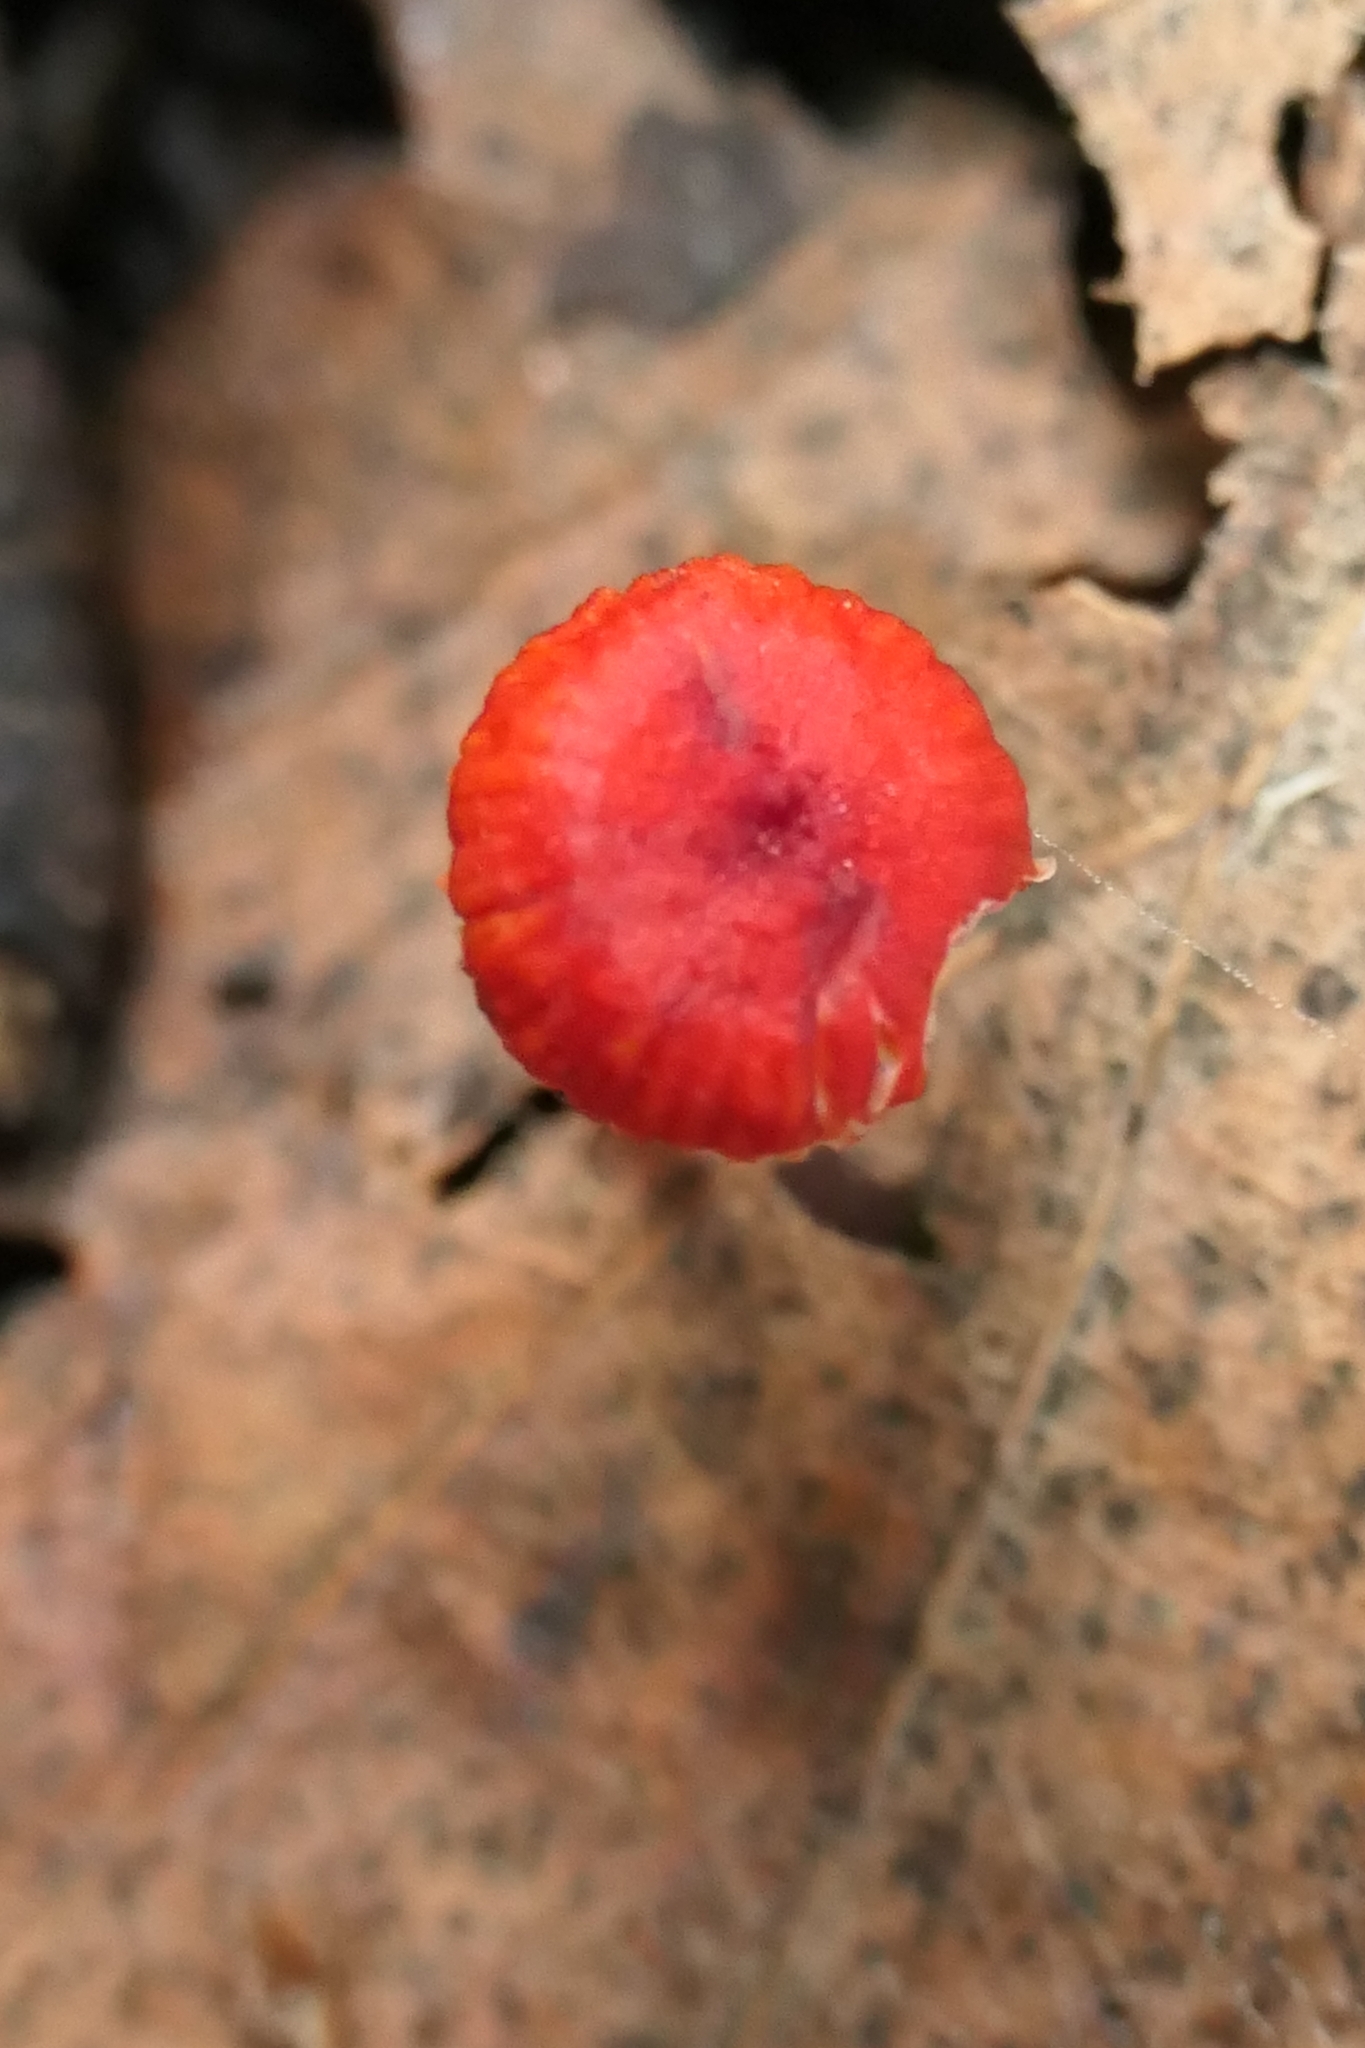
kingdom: Fungi
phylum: Basidiomycota
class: Agaricomycetes
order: Agaricales
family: Mycenaceae
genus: Cruentomycena
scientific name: Cruentomycena viscidocruenta
